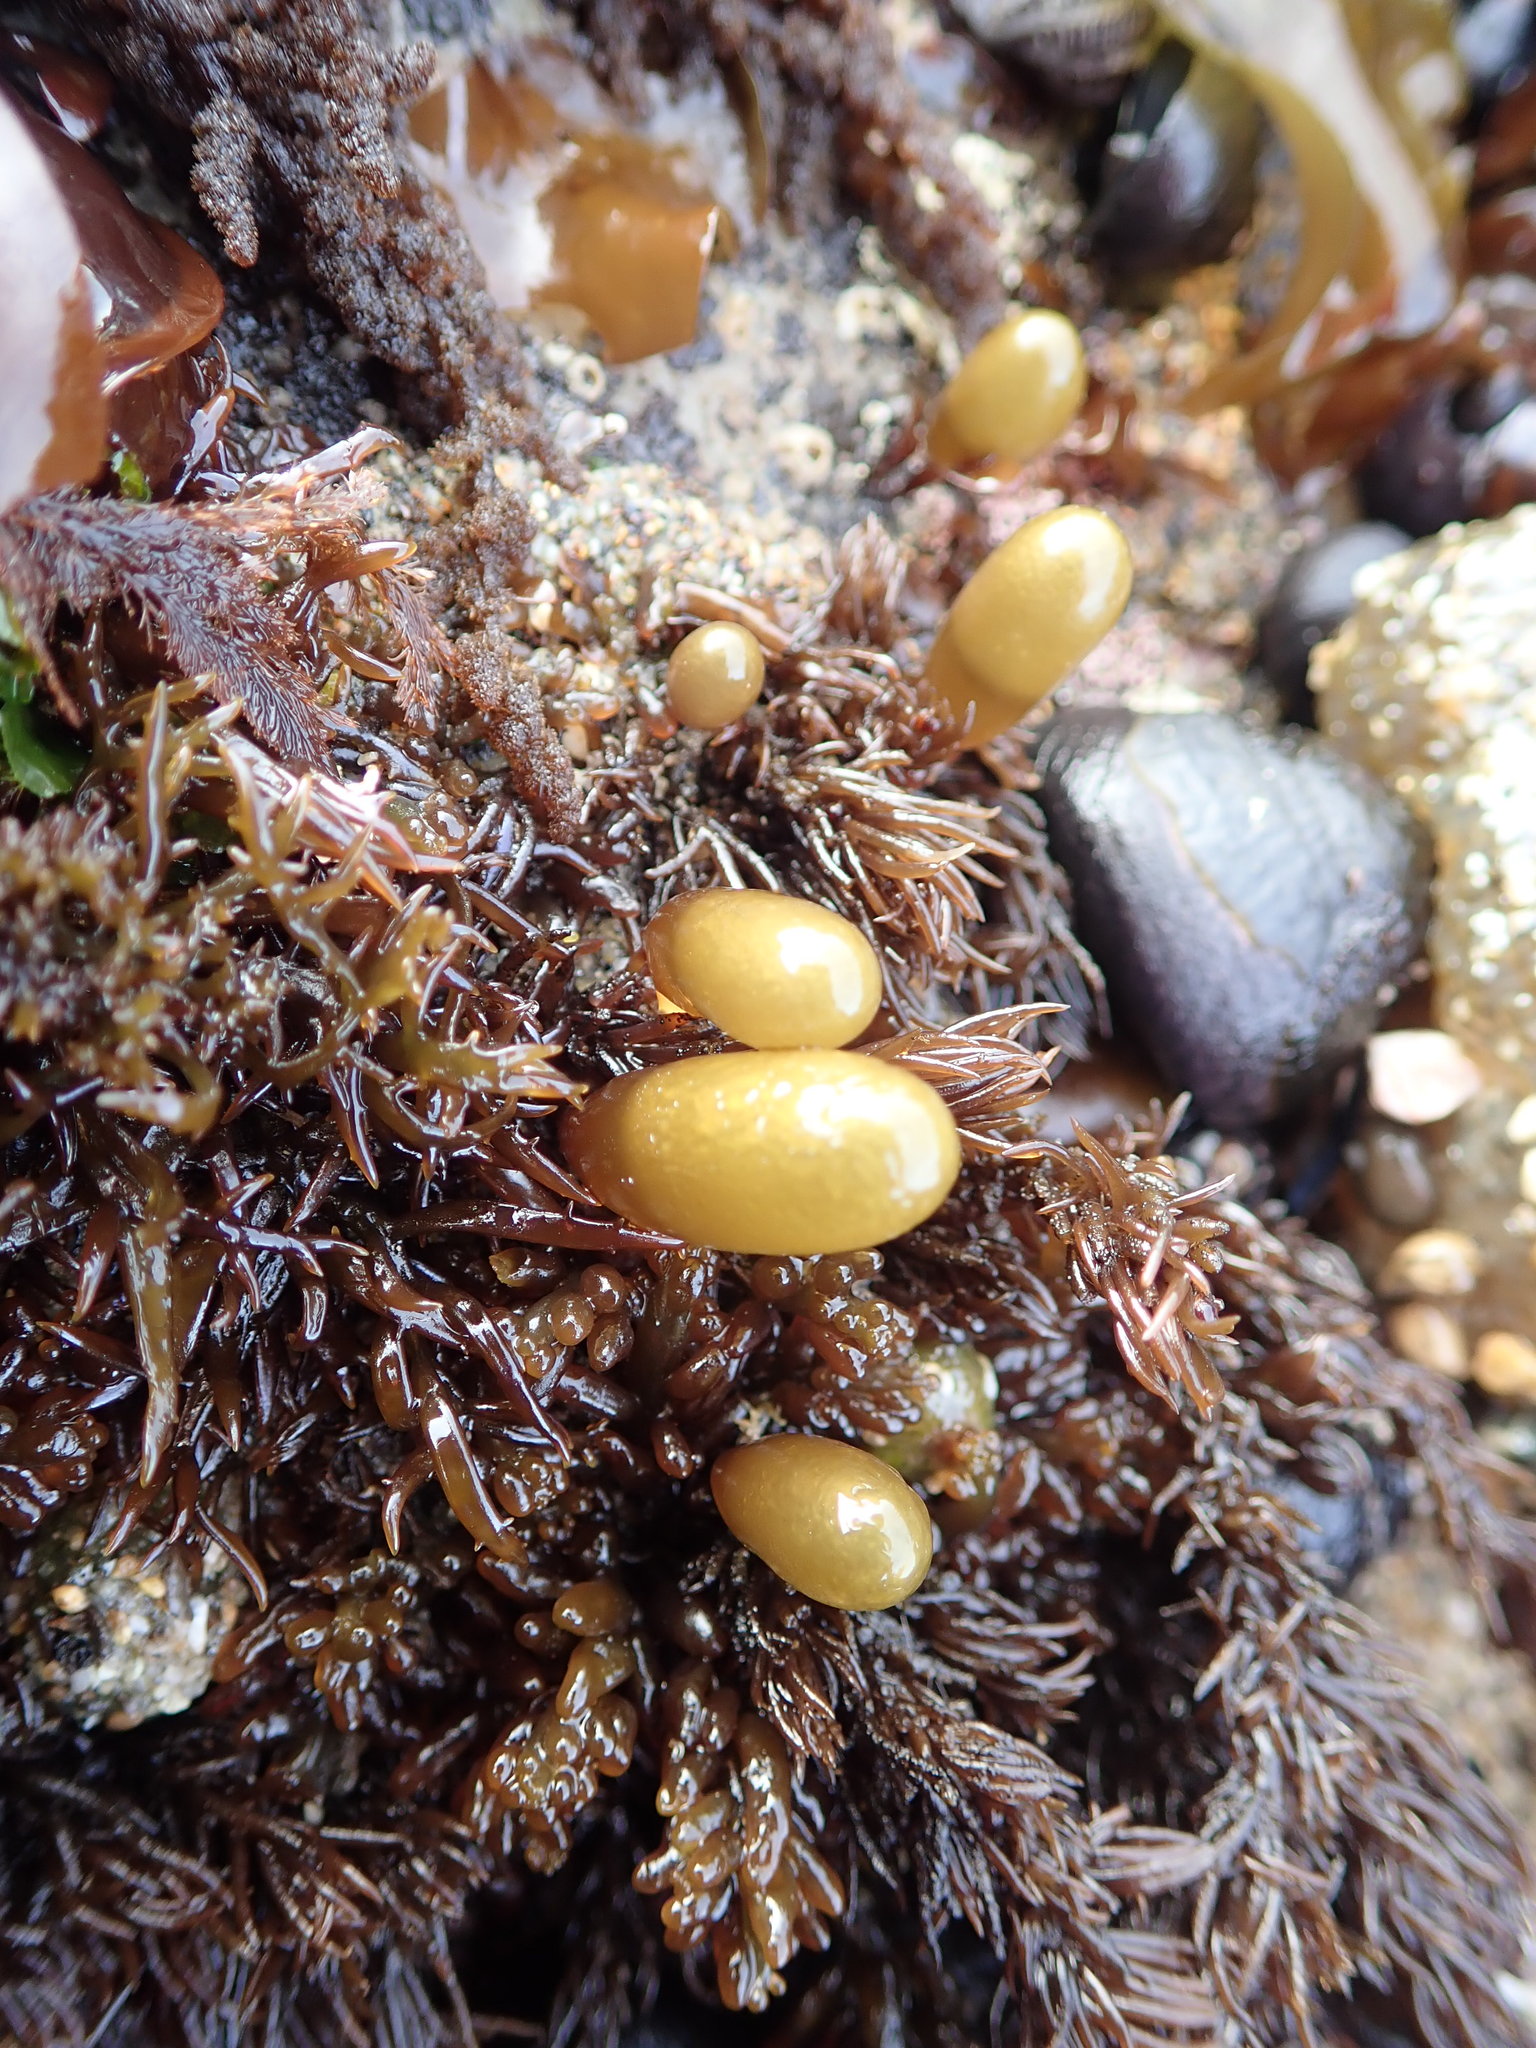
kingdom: Plantae
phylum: Rhodophyta
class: Florideophyceae
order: Palmariales
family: Palmariaceae
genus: Halosaccion
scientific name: Halosaccion glandiforme
